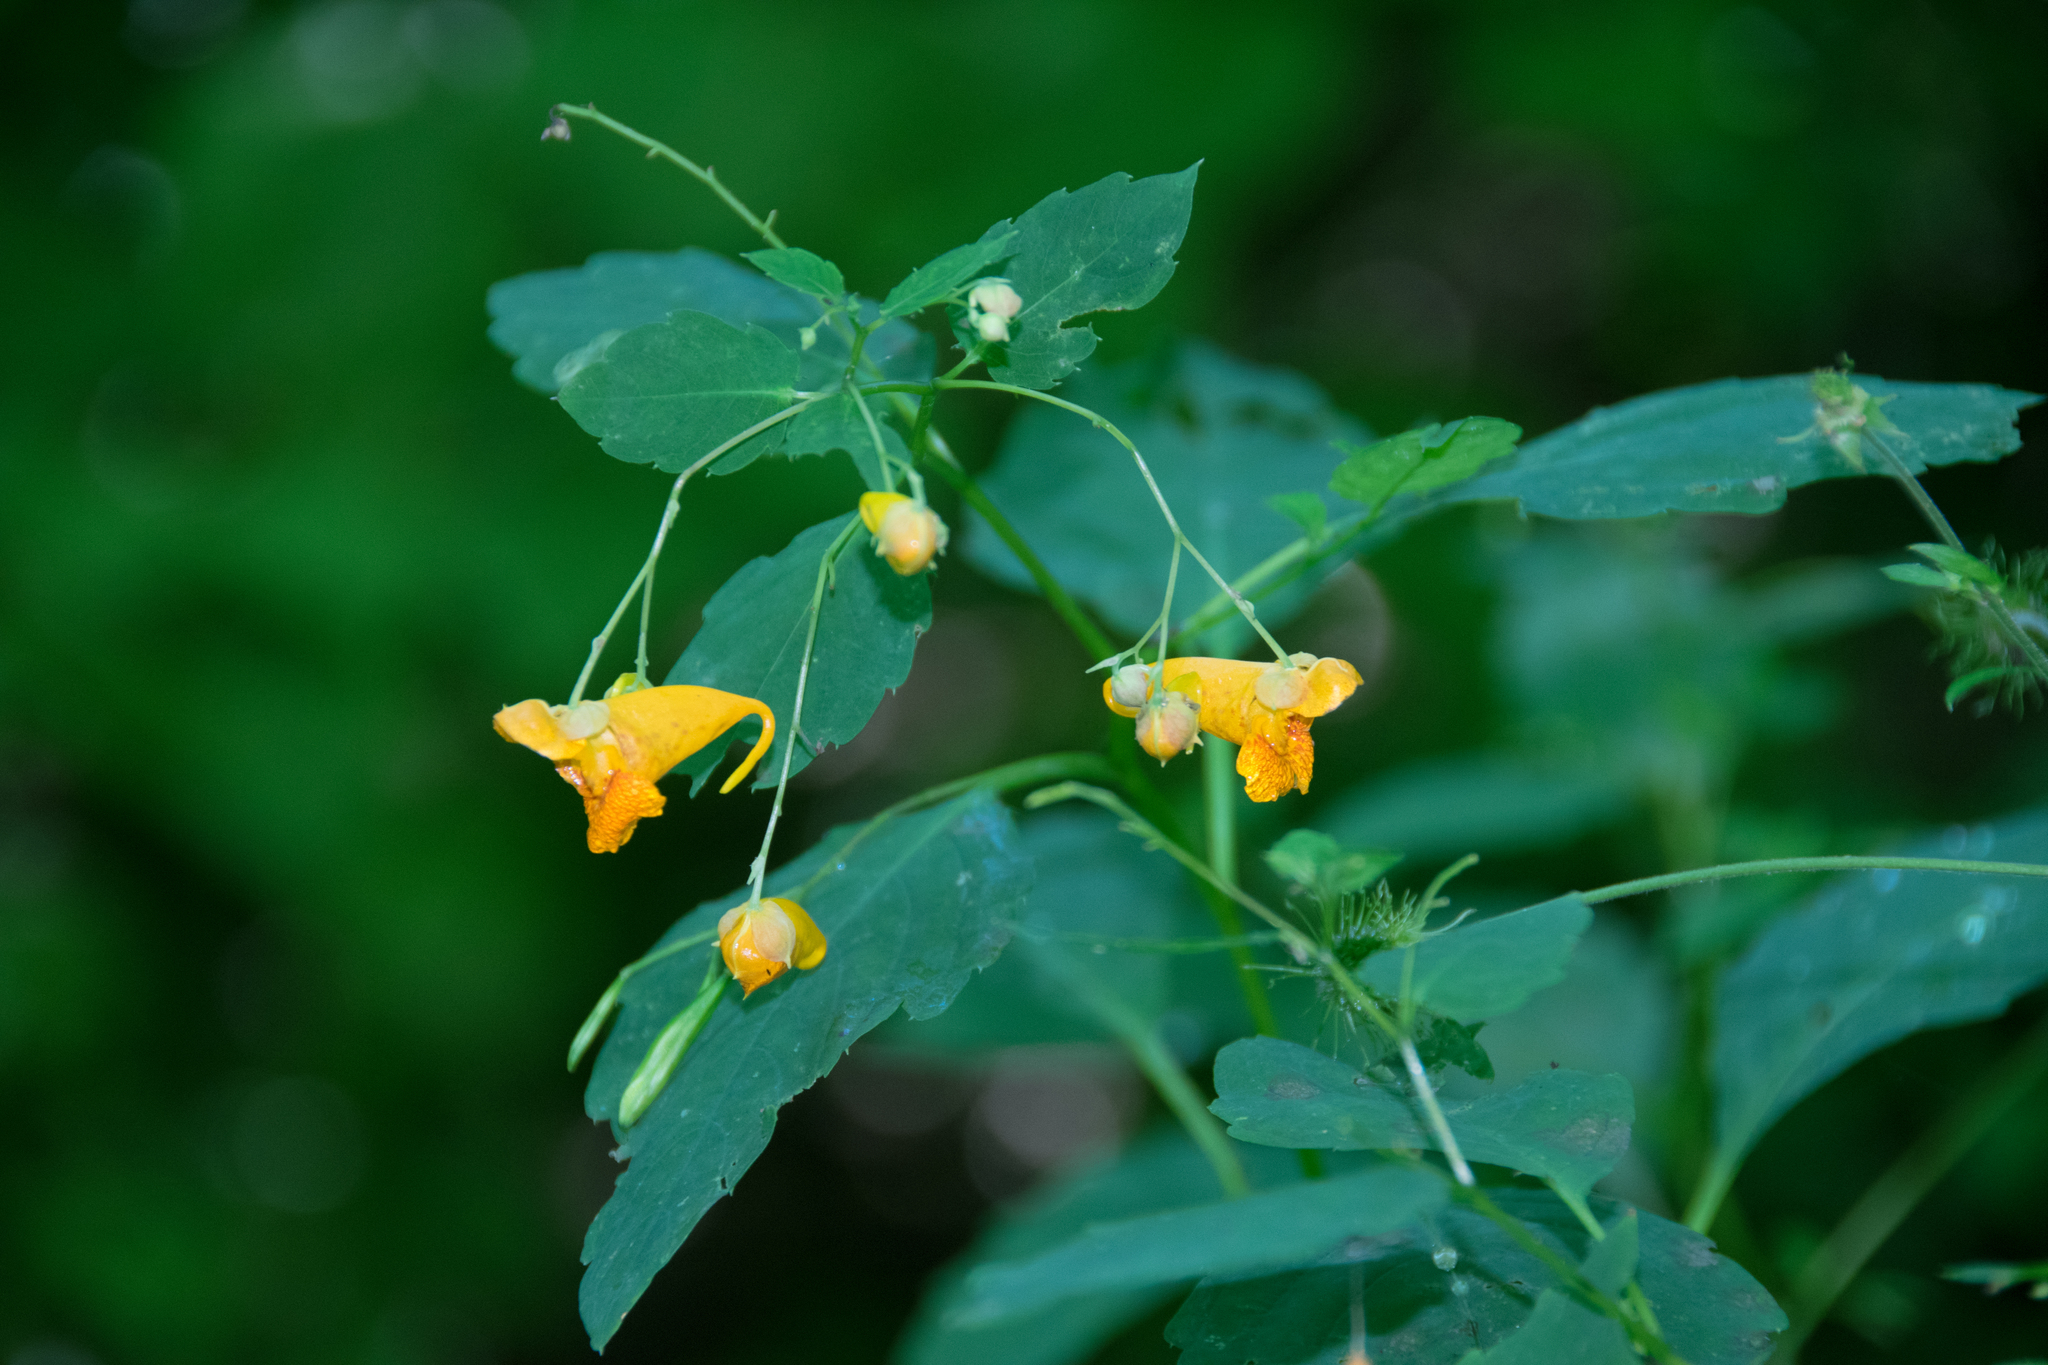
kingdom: Plantae
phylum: Tracheophyta
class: Magnoliopsida
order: Ericales
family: Balsaminaceae
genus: Impatiens
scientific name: Impatiens capensis
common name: Orange balsam
